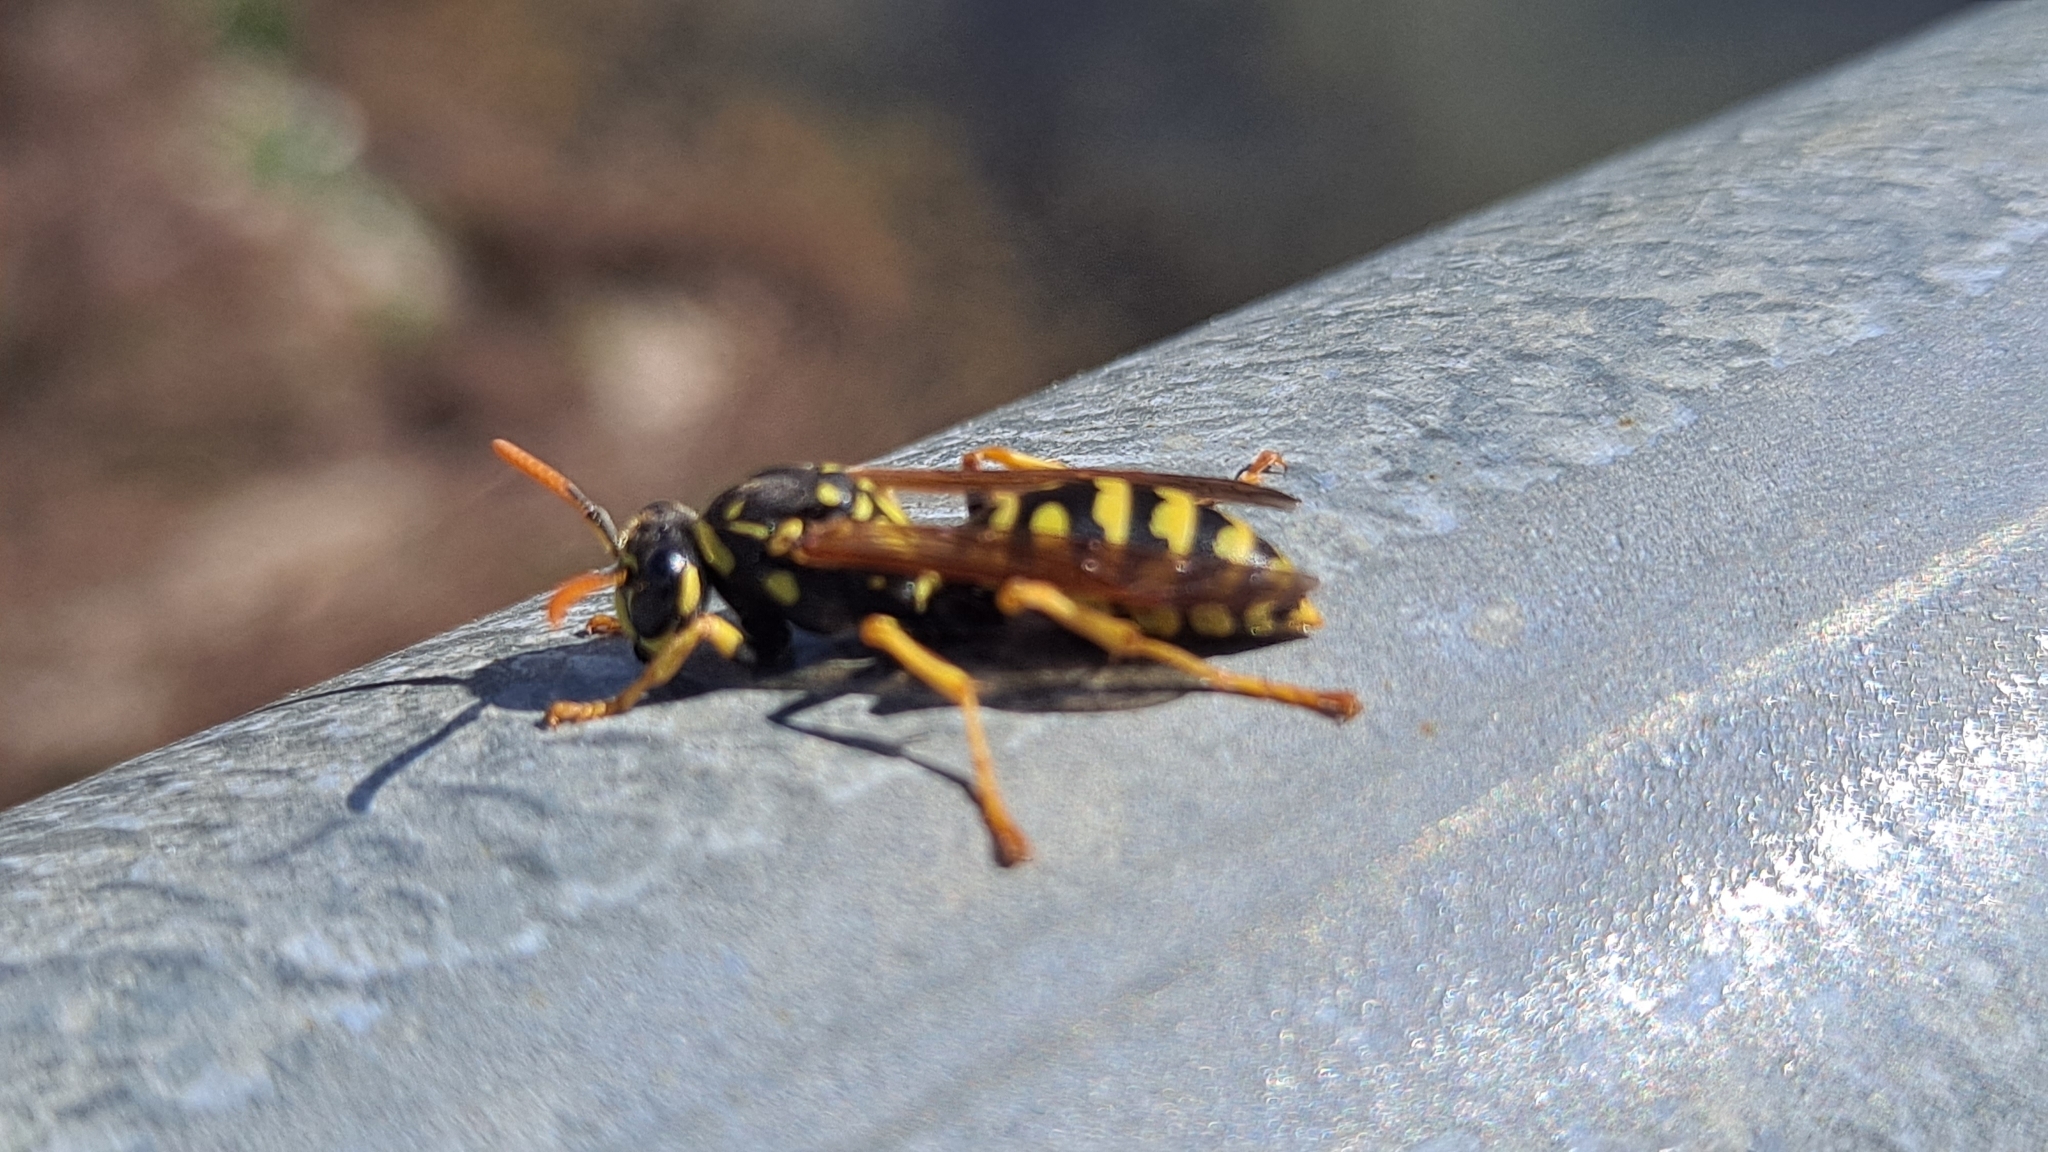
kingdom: Animalia
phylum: Arthropoda
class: Insecta
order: Hymenoptera
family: Eumenidae
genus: Polistes
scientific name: Polistes dominula
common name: Paper wasp
